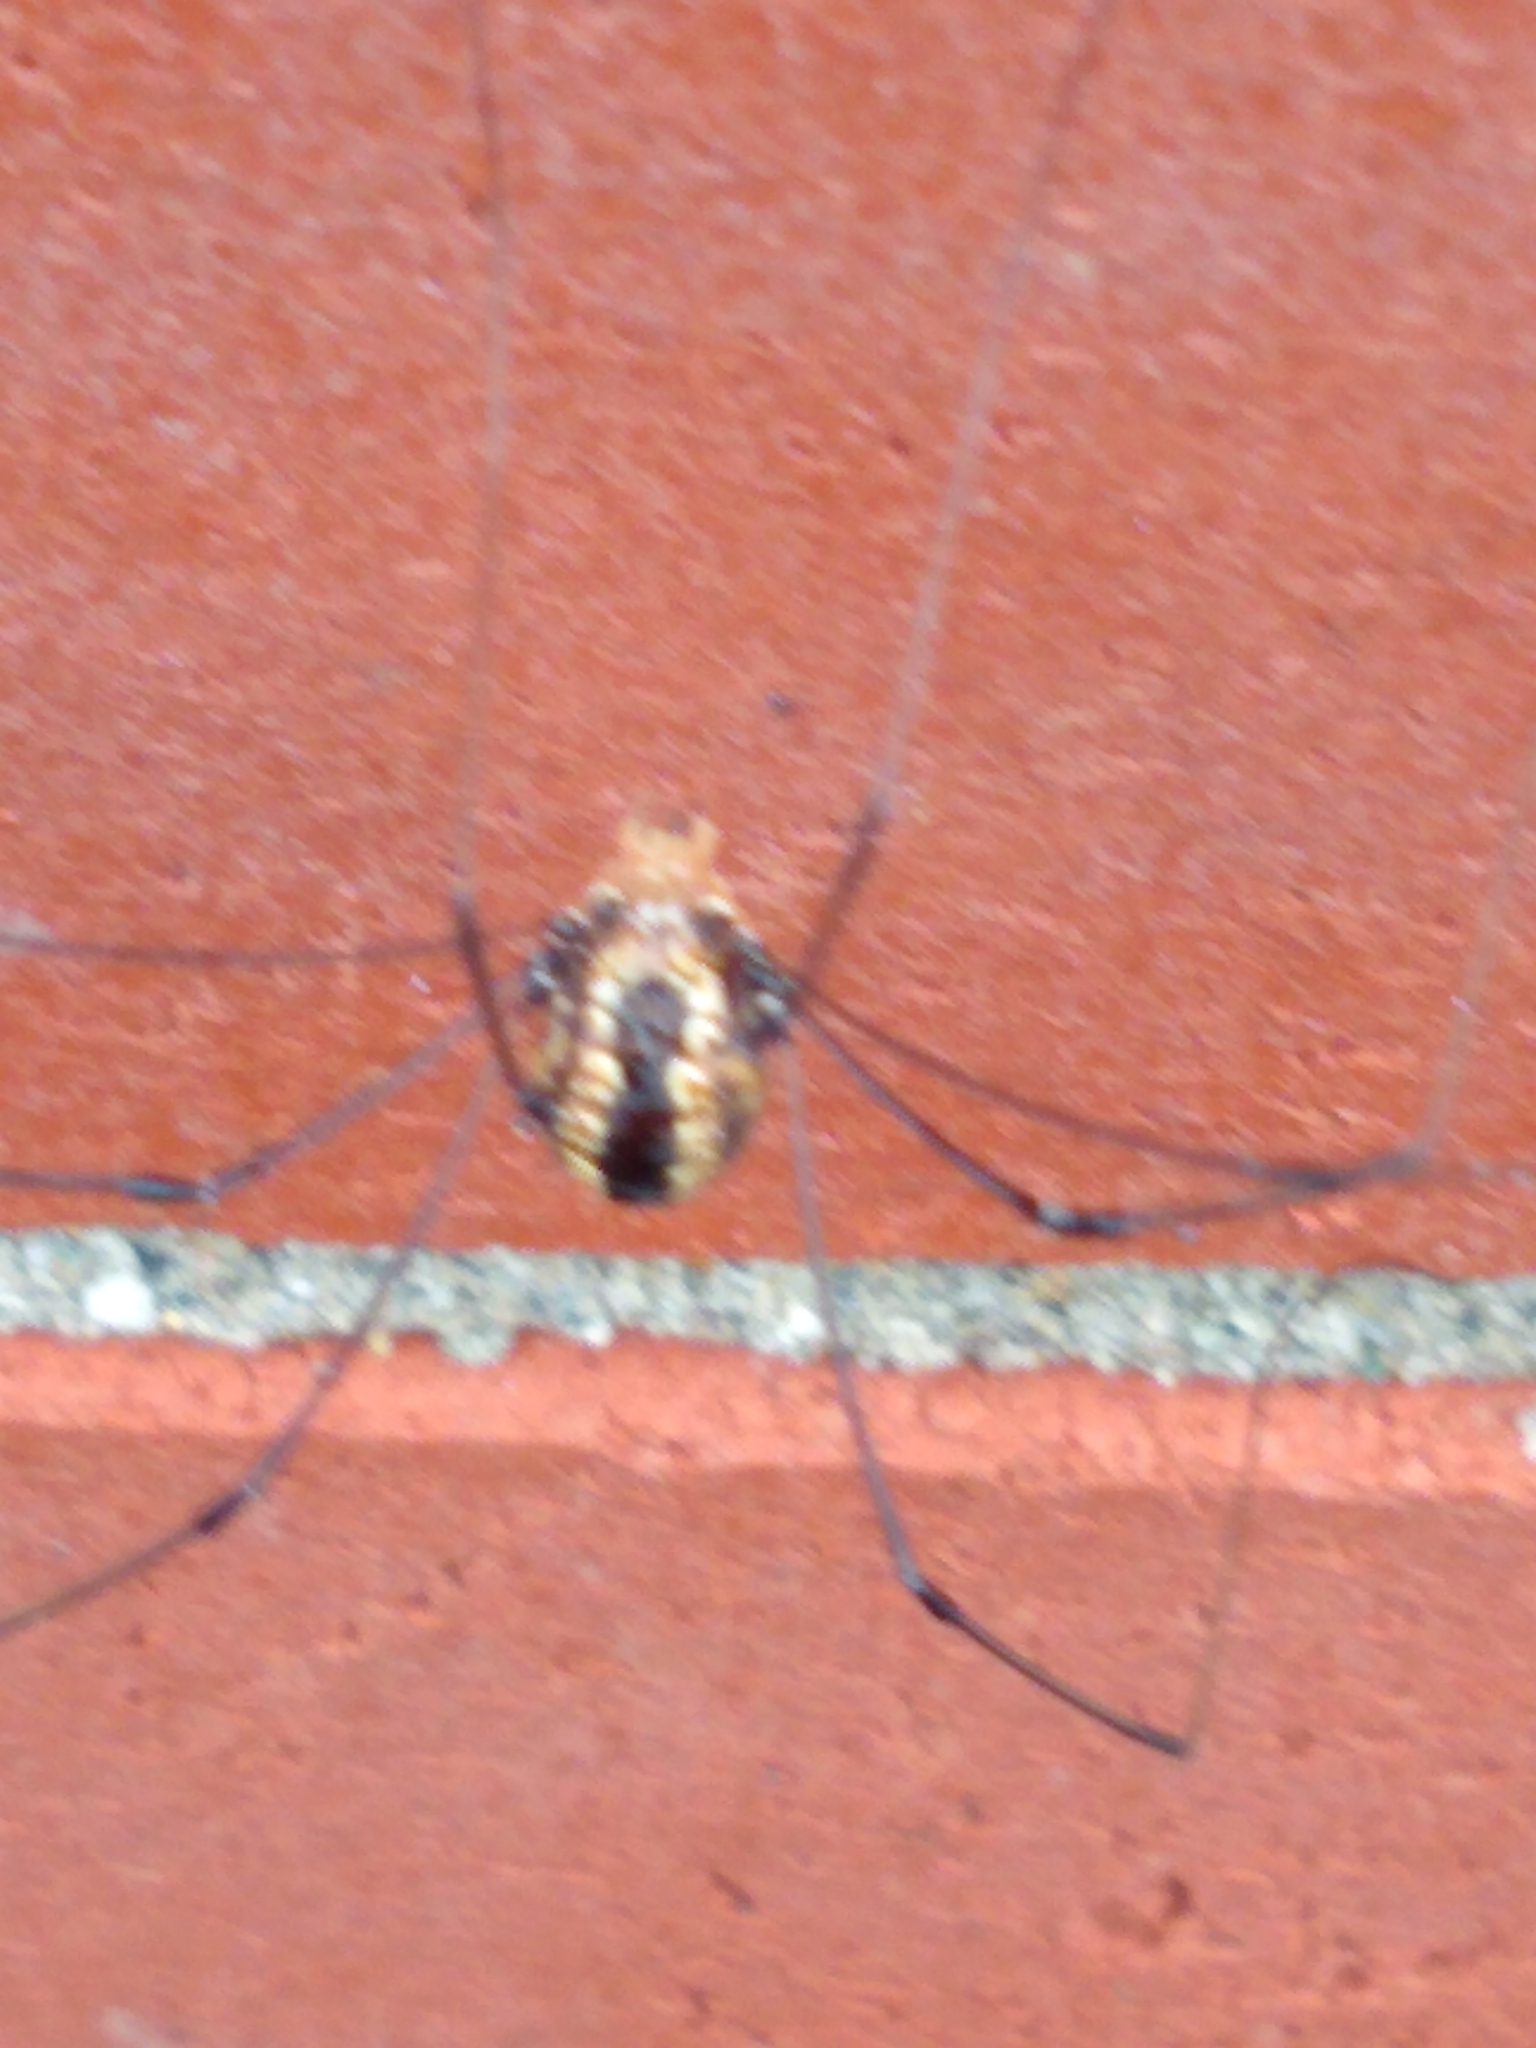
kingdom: Animalia
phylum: Arthropoda
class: Arachnida
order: Opiliones
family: Sclerosomatidae
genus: Leiobunum
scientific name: Leiobunum vittatum
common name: Eastern harvestman
